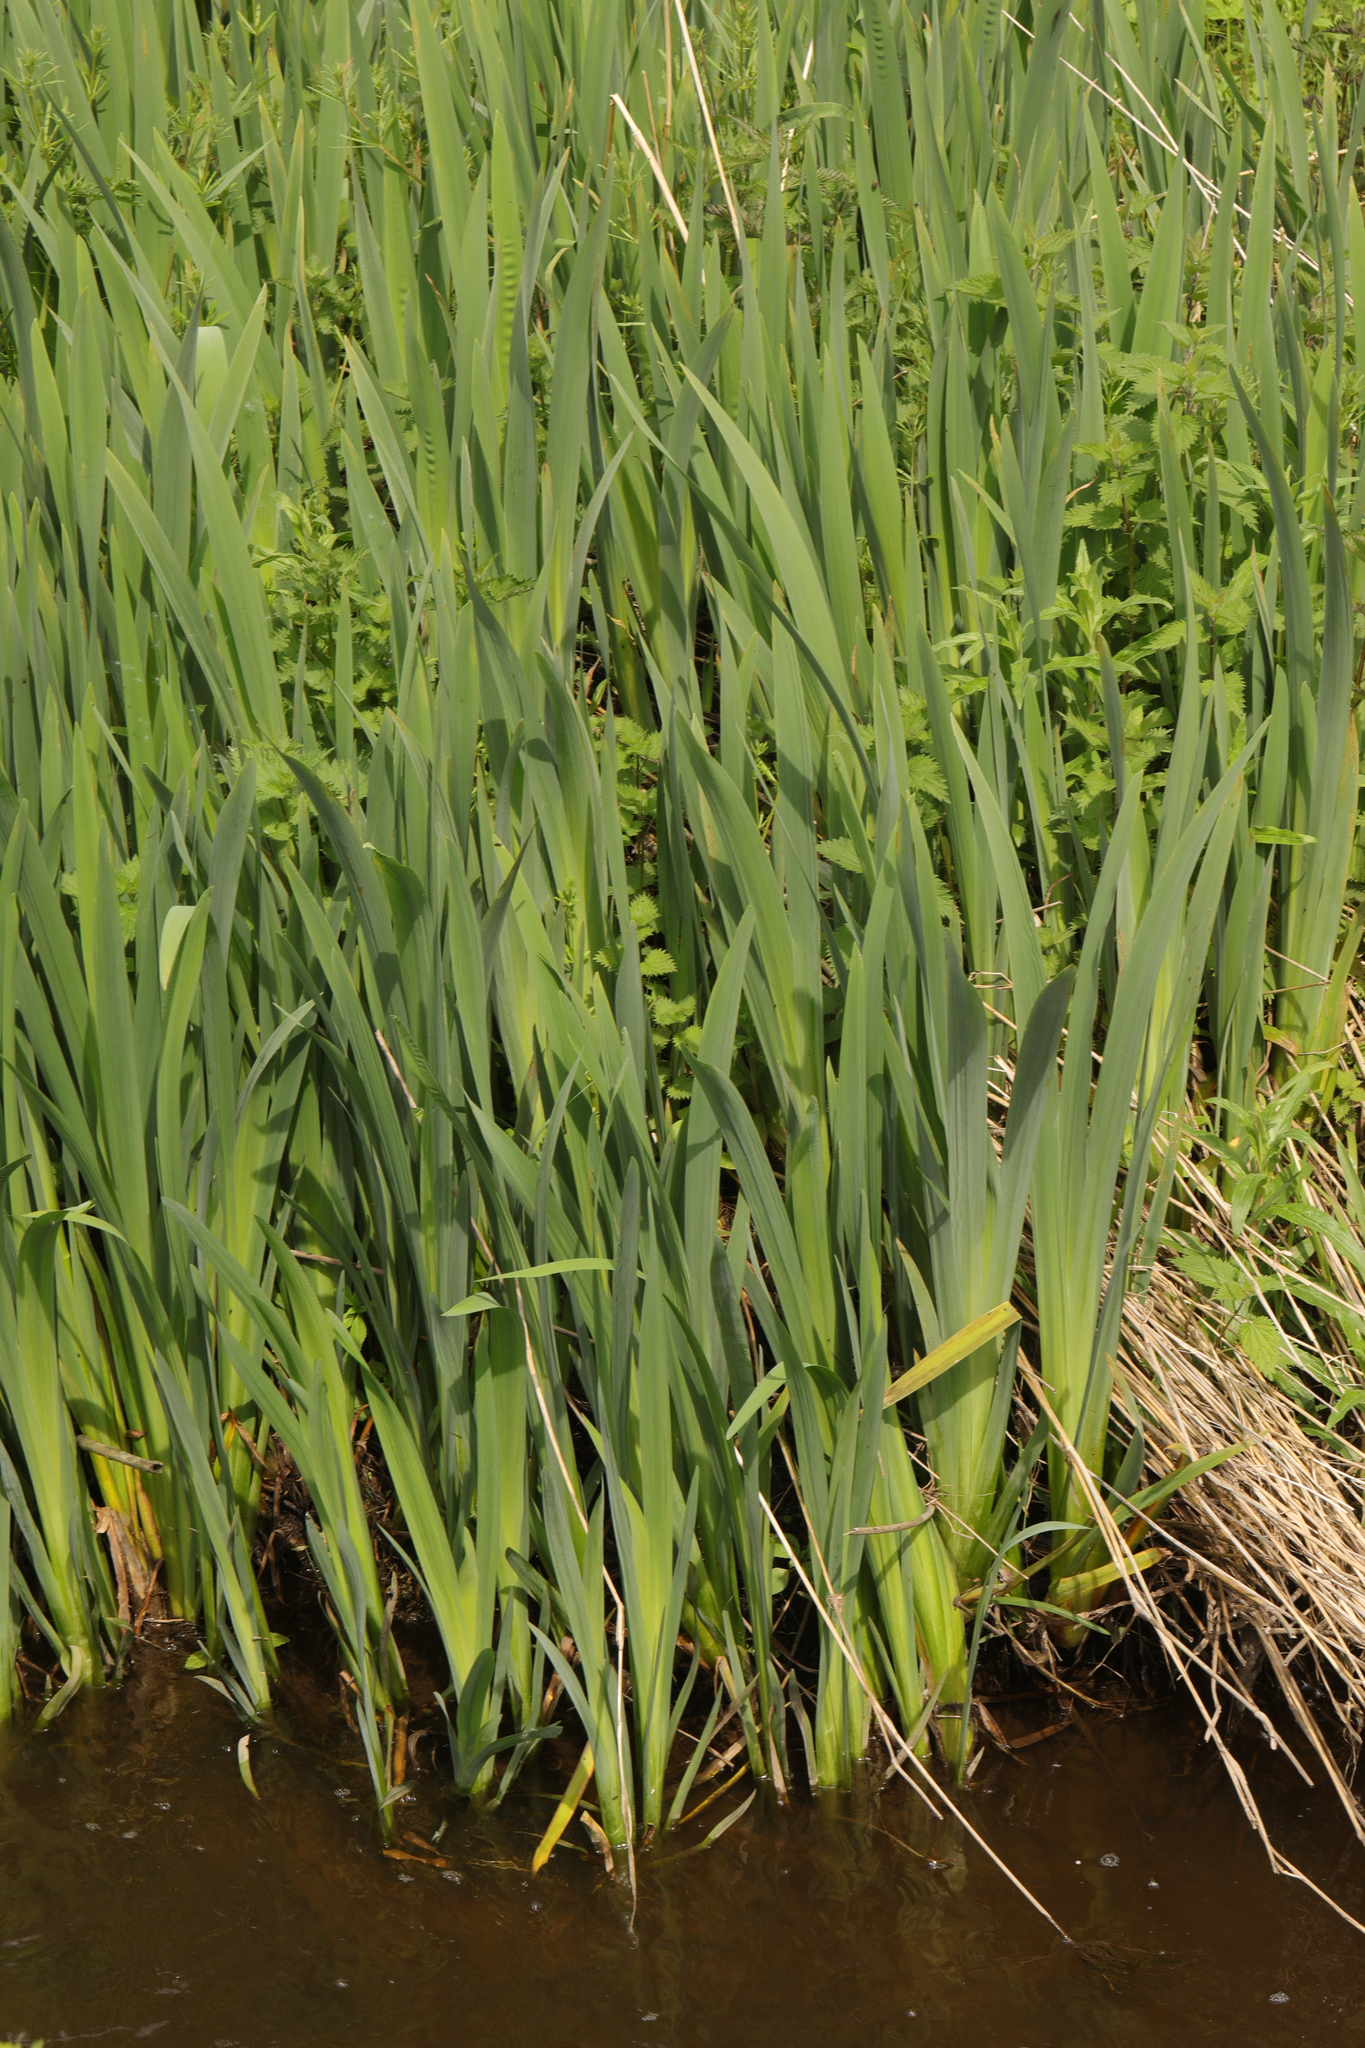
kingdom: Plantae
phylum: Tracheophyta
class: Liliopsida
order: Asparagales
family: Iridaceae
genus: Iris
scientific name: Iris pseudacorus
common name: Yellow flag
